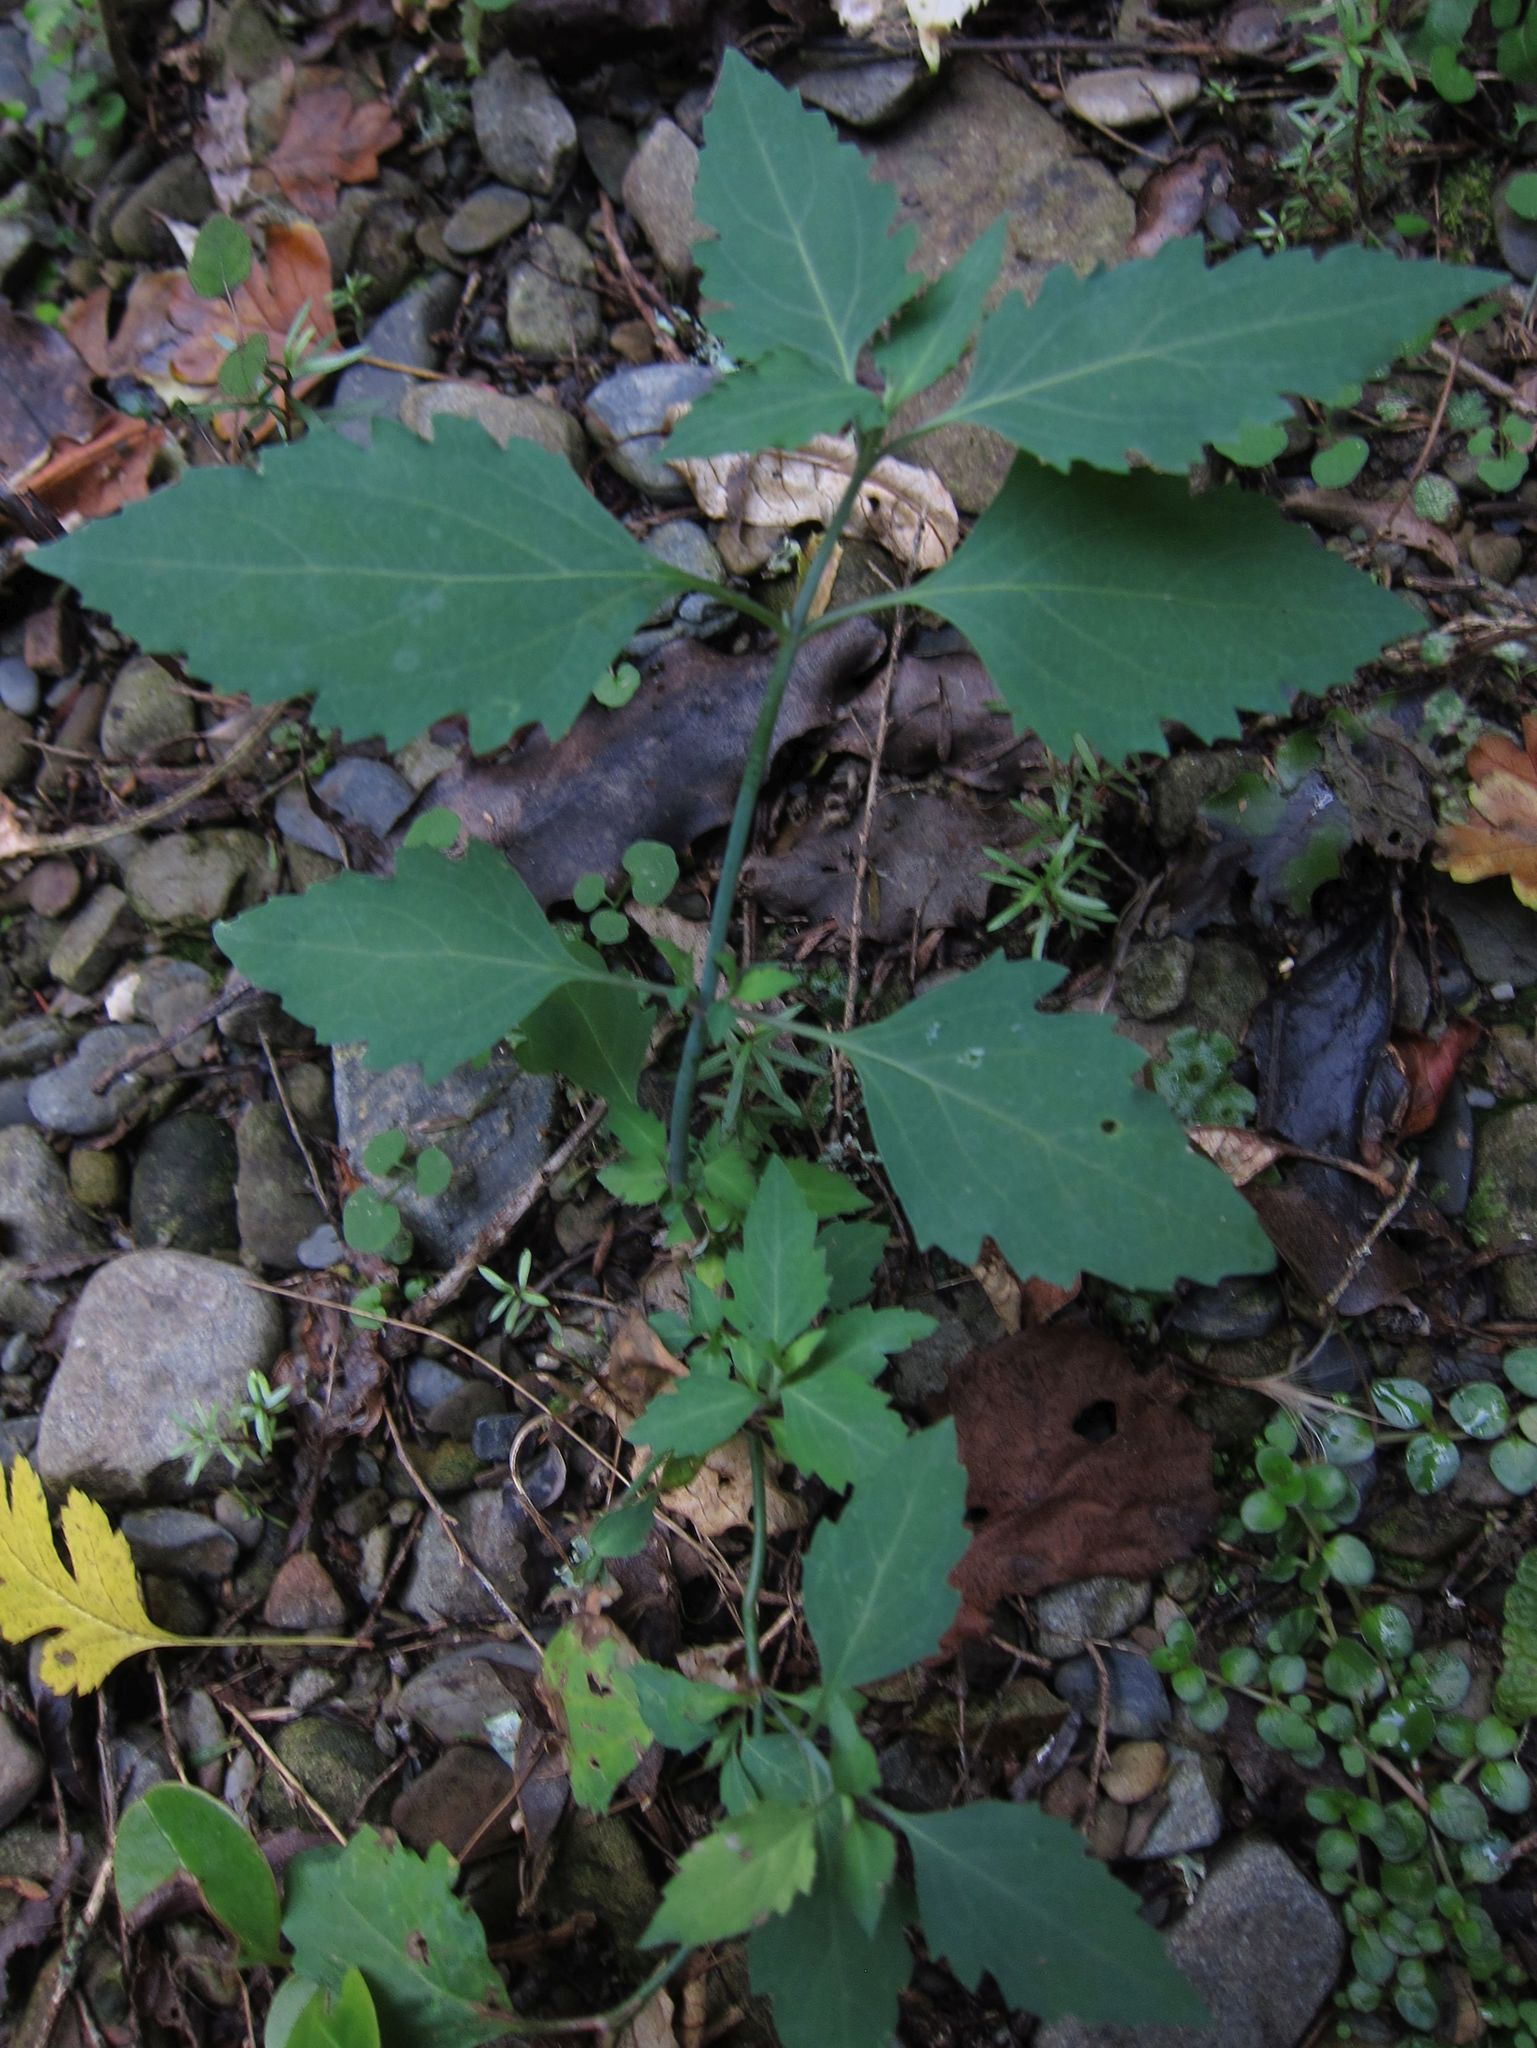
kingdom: Plantae
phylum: Tracheophyta
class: Magnoliopsida
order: Dipsacales
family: Caprifoliaceae
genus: Leycesteria
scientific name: Leycesteria formosa
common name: Himalayan honeysuckle
